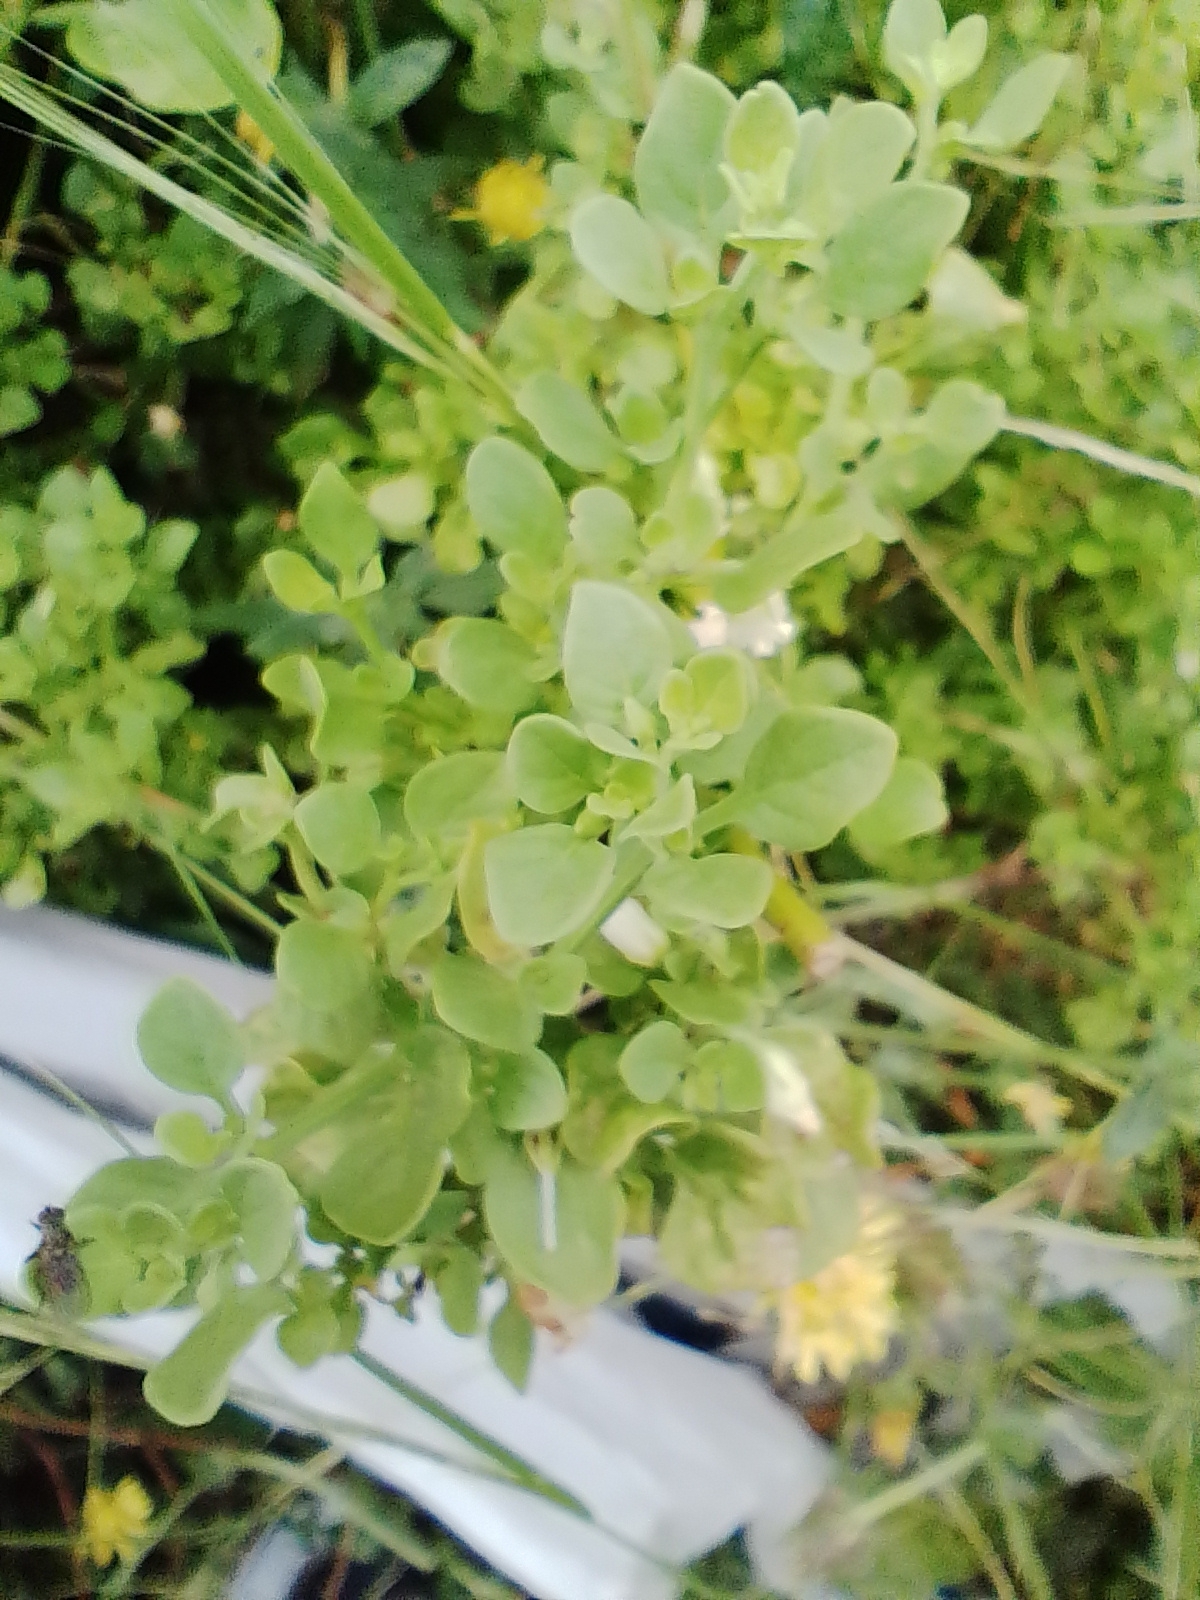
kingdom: Plantae
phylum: Tracheophyta
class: Magnoliopsida
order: Solanales
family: Solanaceae
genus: Salpichroa
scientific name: Salpichroa origanifolia
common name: Lily-of-the-valley-vine
